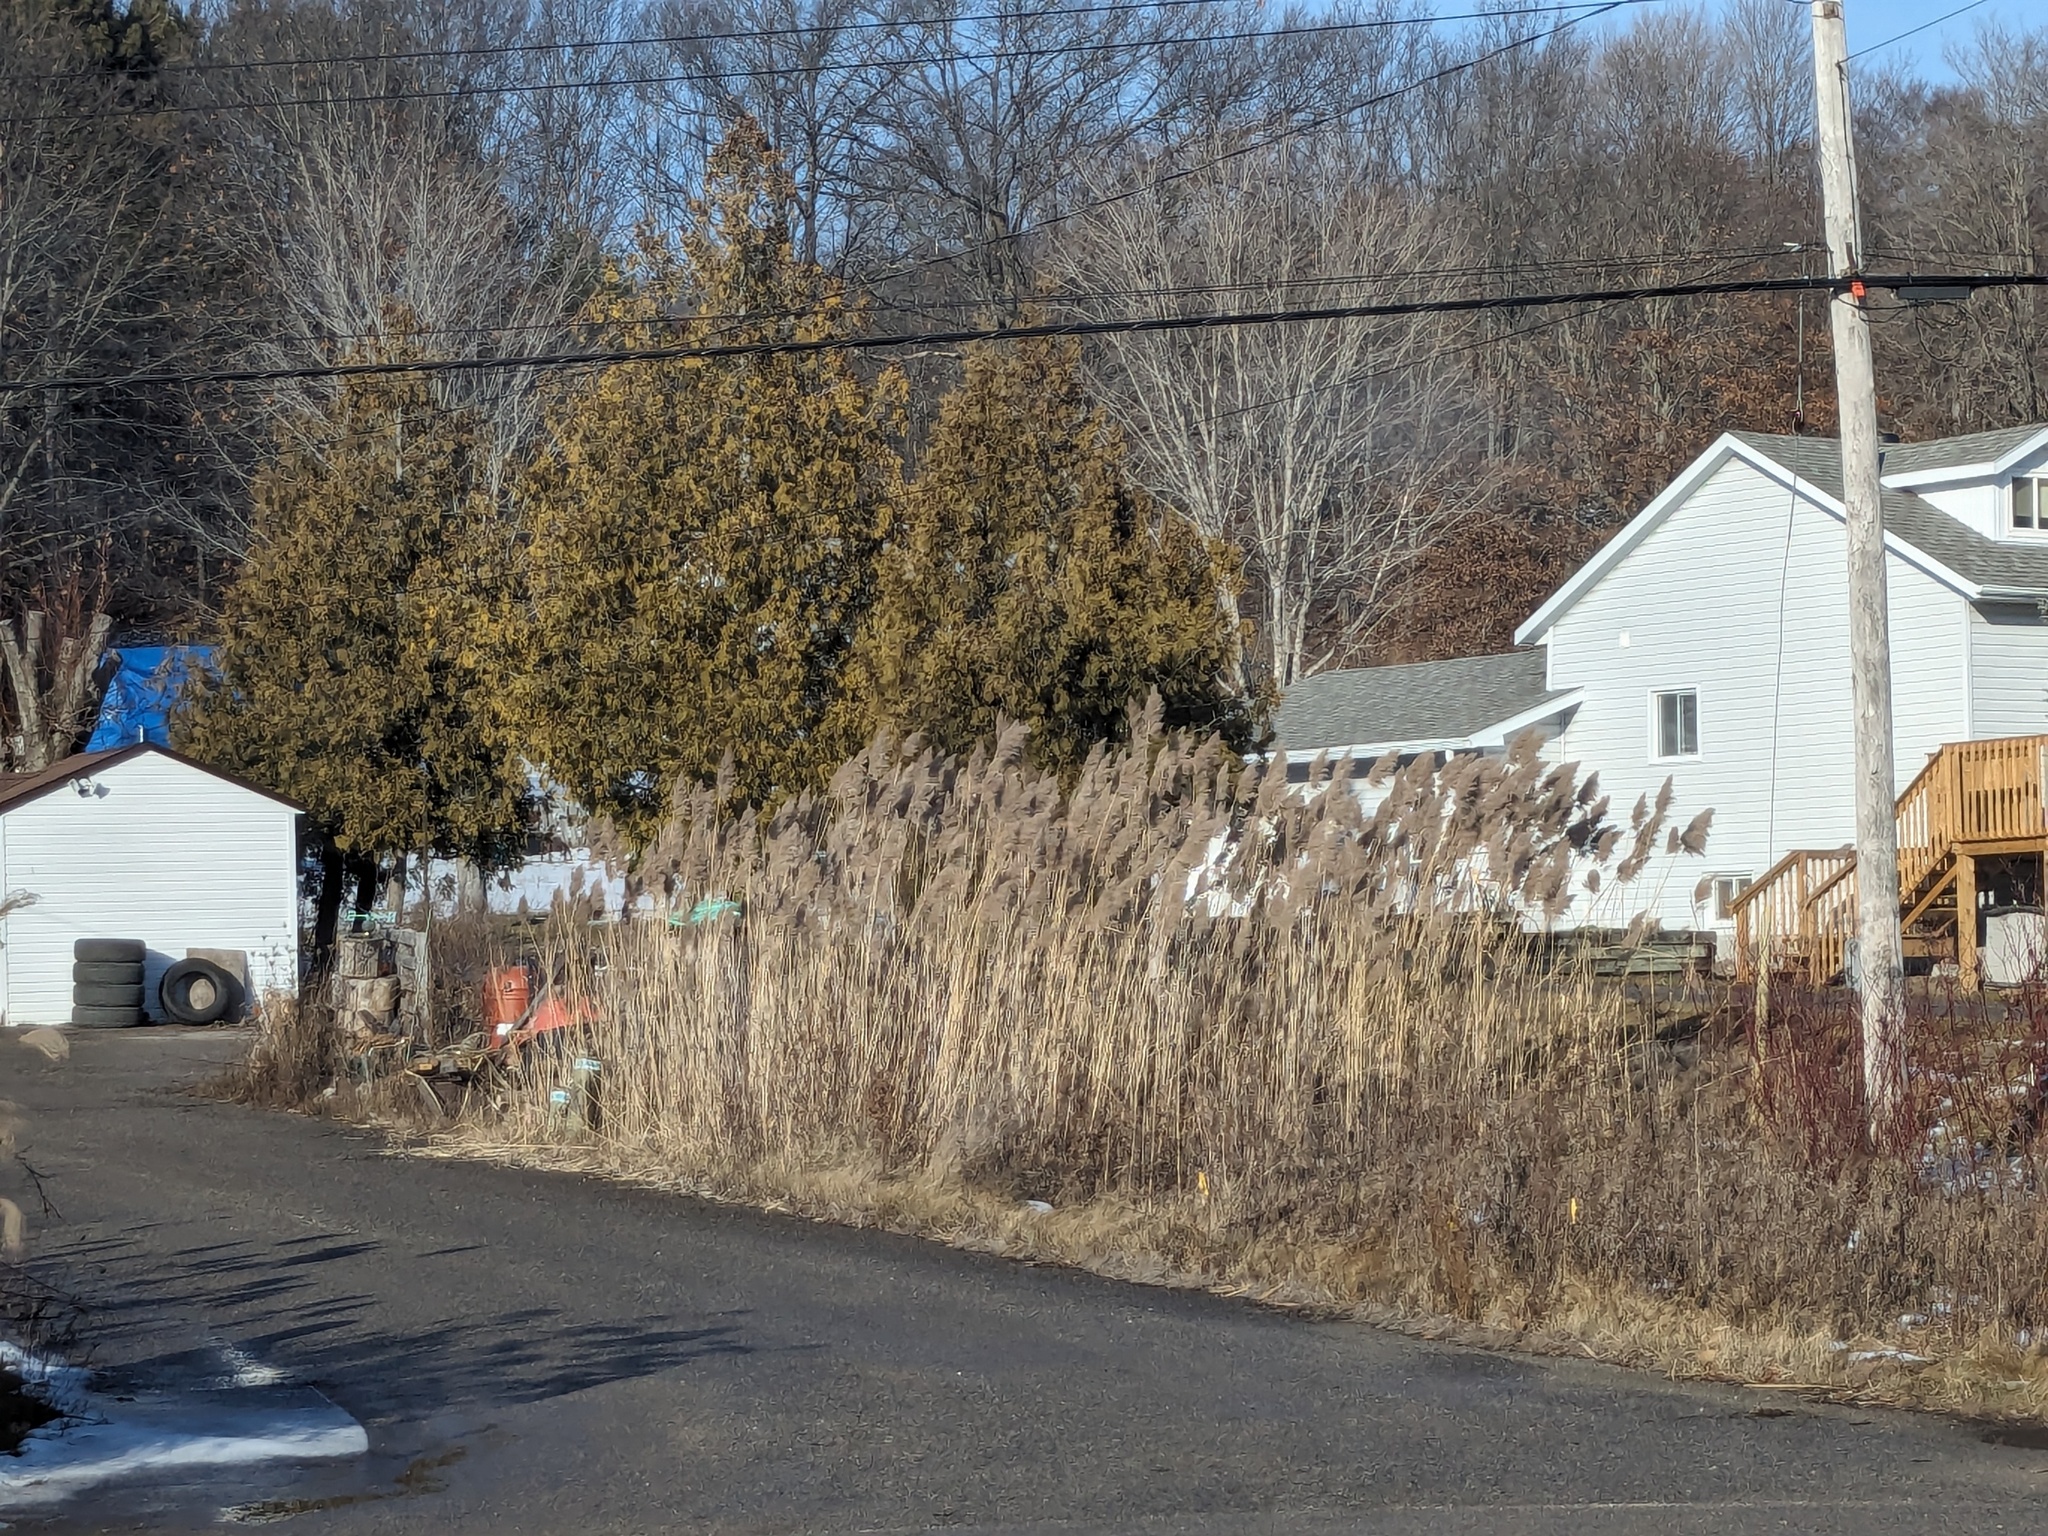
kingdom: Plantae
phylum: Tracheophyta
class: Liliopsida
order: Poales
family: Poaceae
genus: Phragmites
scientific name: Phragmites australis
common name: Common reed
